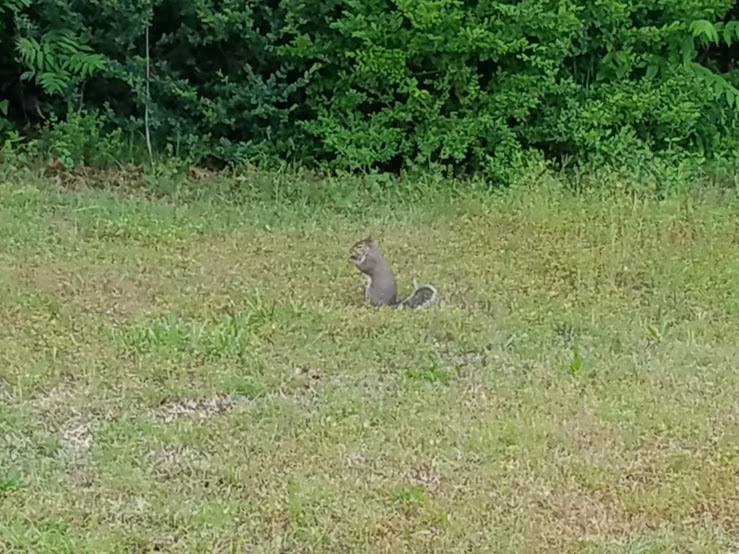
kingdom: Animalia
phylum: Chordata
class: Mammalia
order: Rodentia
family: Sciuridae
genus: Sciurus
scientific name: Sciurus carolinensis
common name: Eastern gray squirrel
